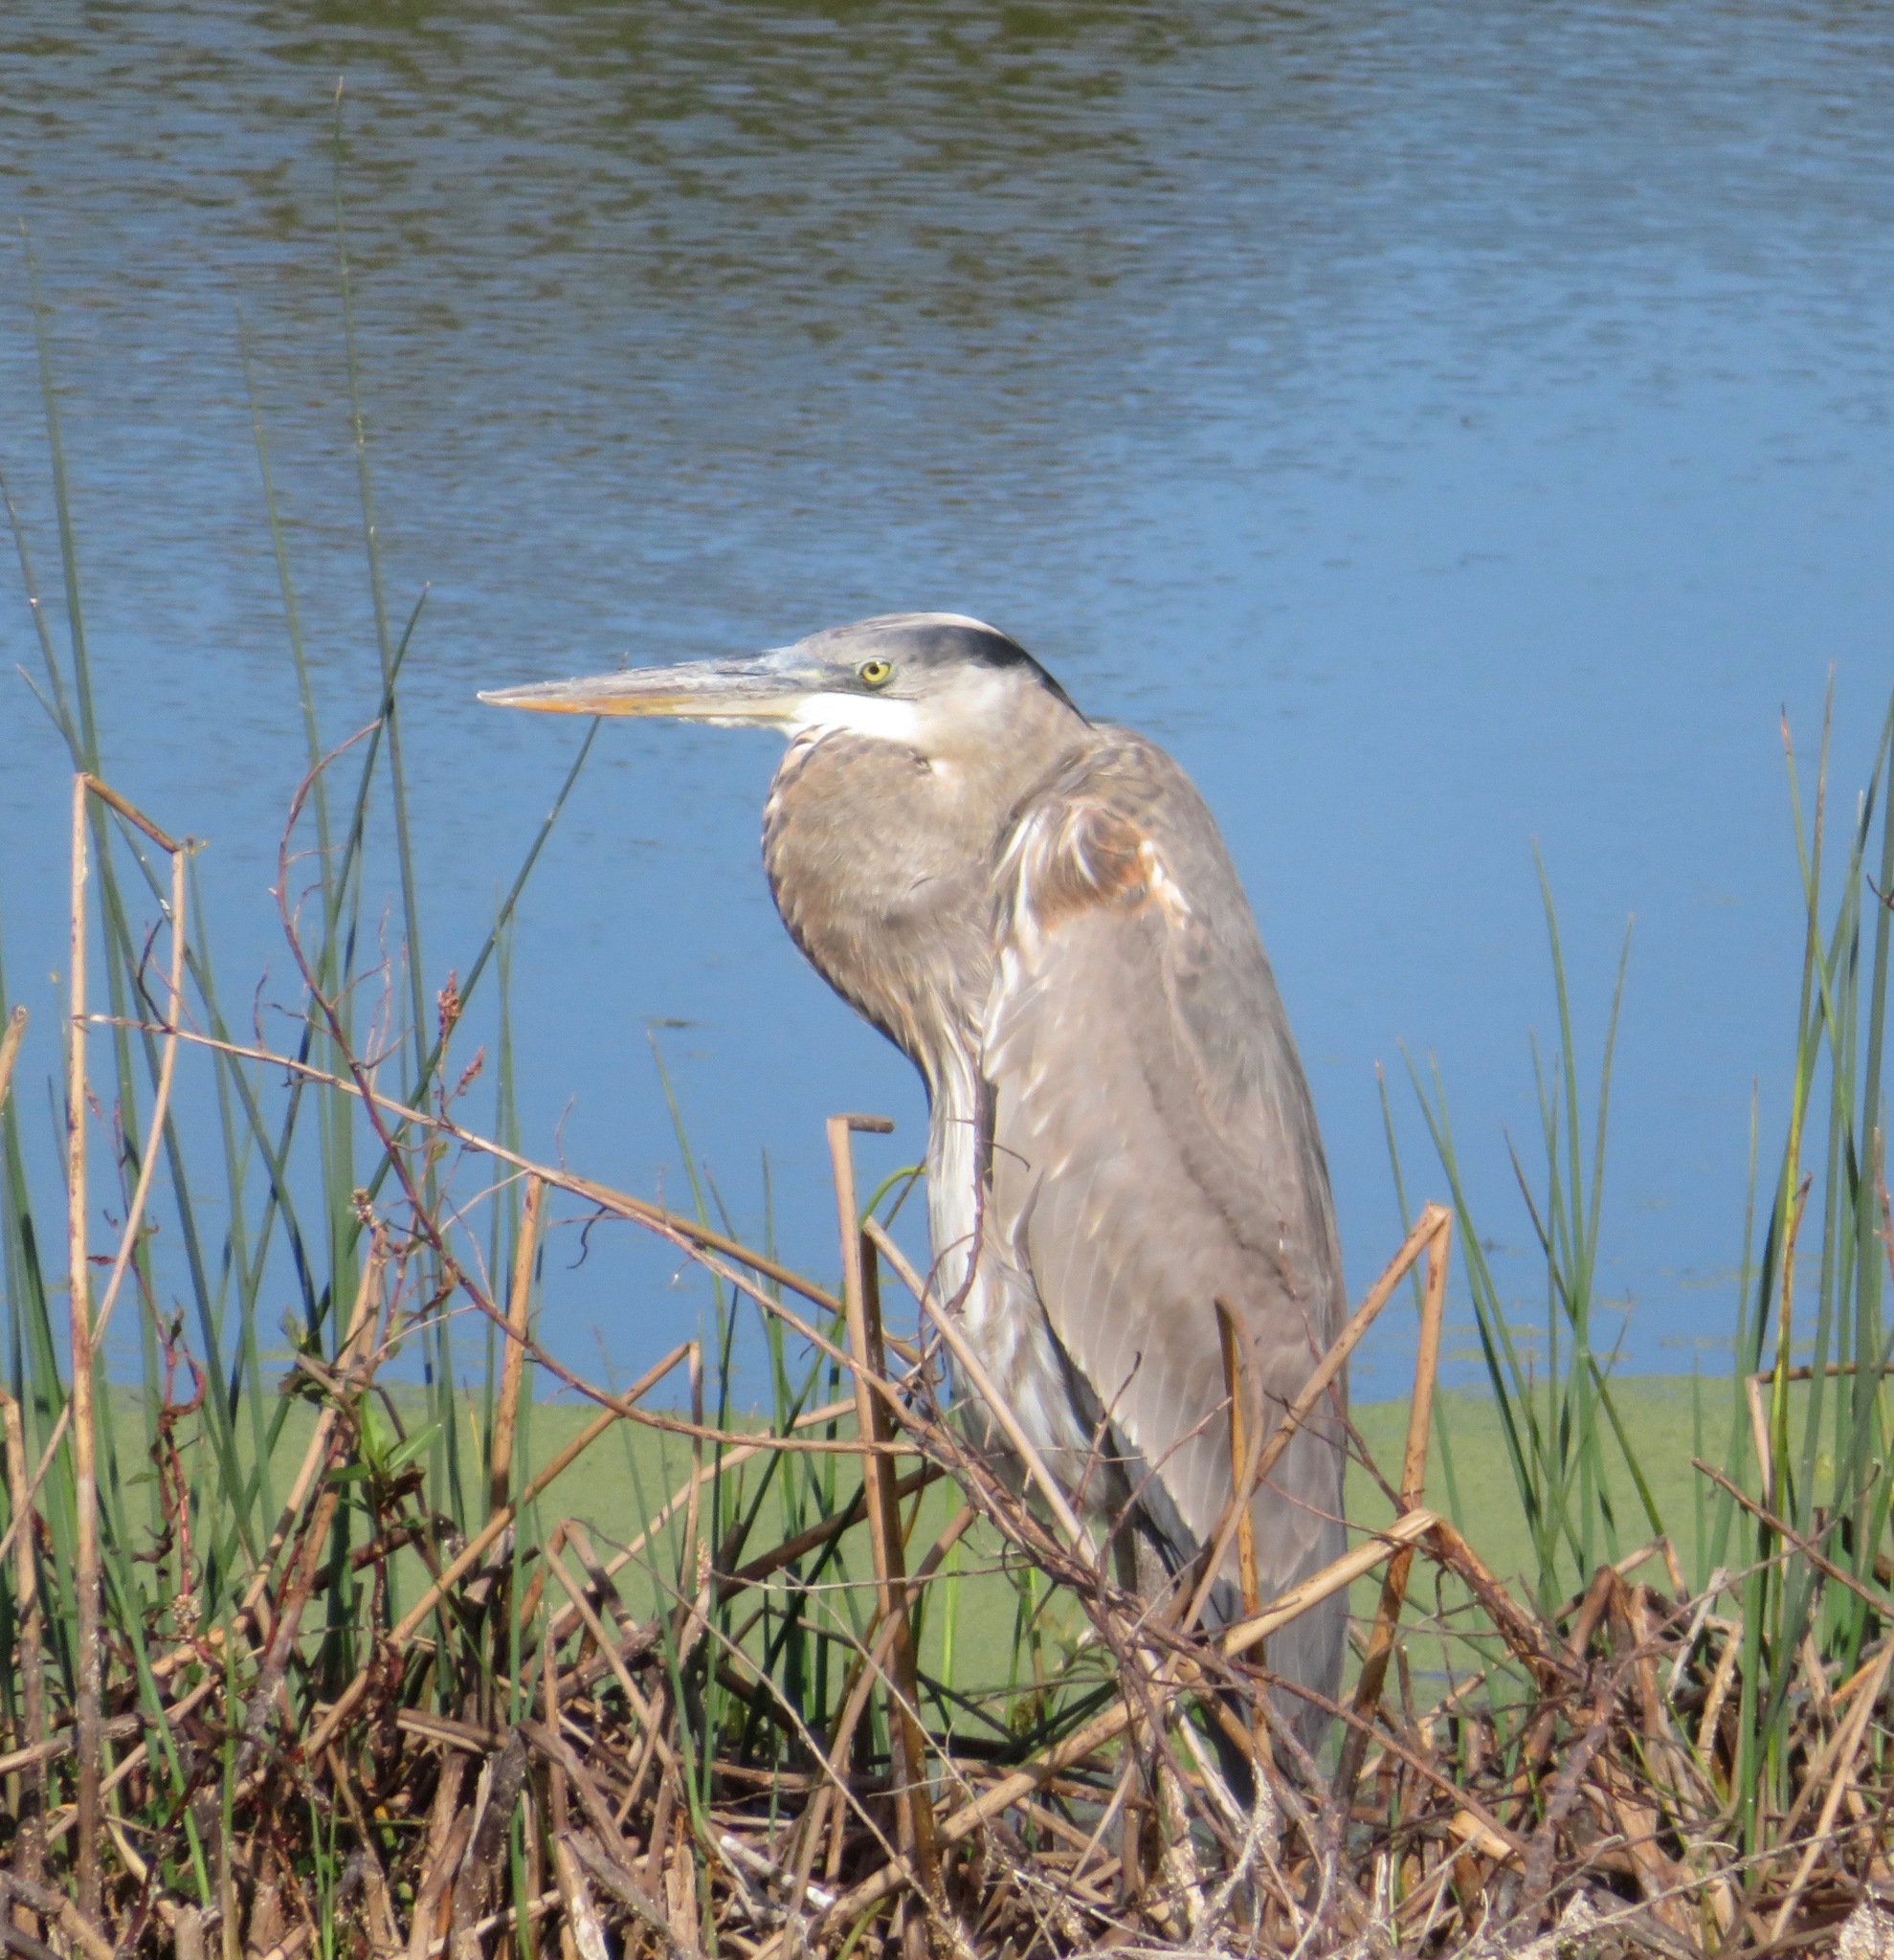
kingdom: Animalia
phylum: Chordata
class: Aves
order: Pelecaniformes
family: Ardeidae
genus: Ardea
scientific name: Ardea herodias
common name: Great blue heron
